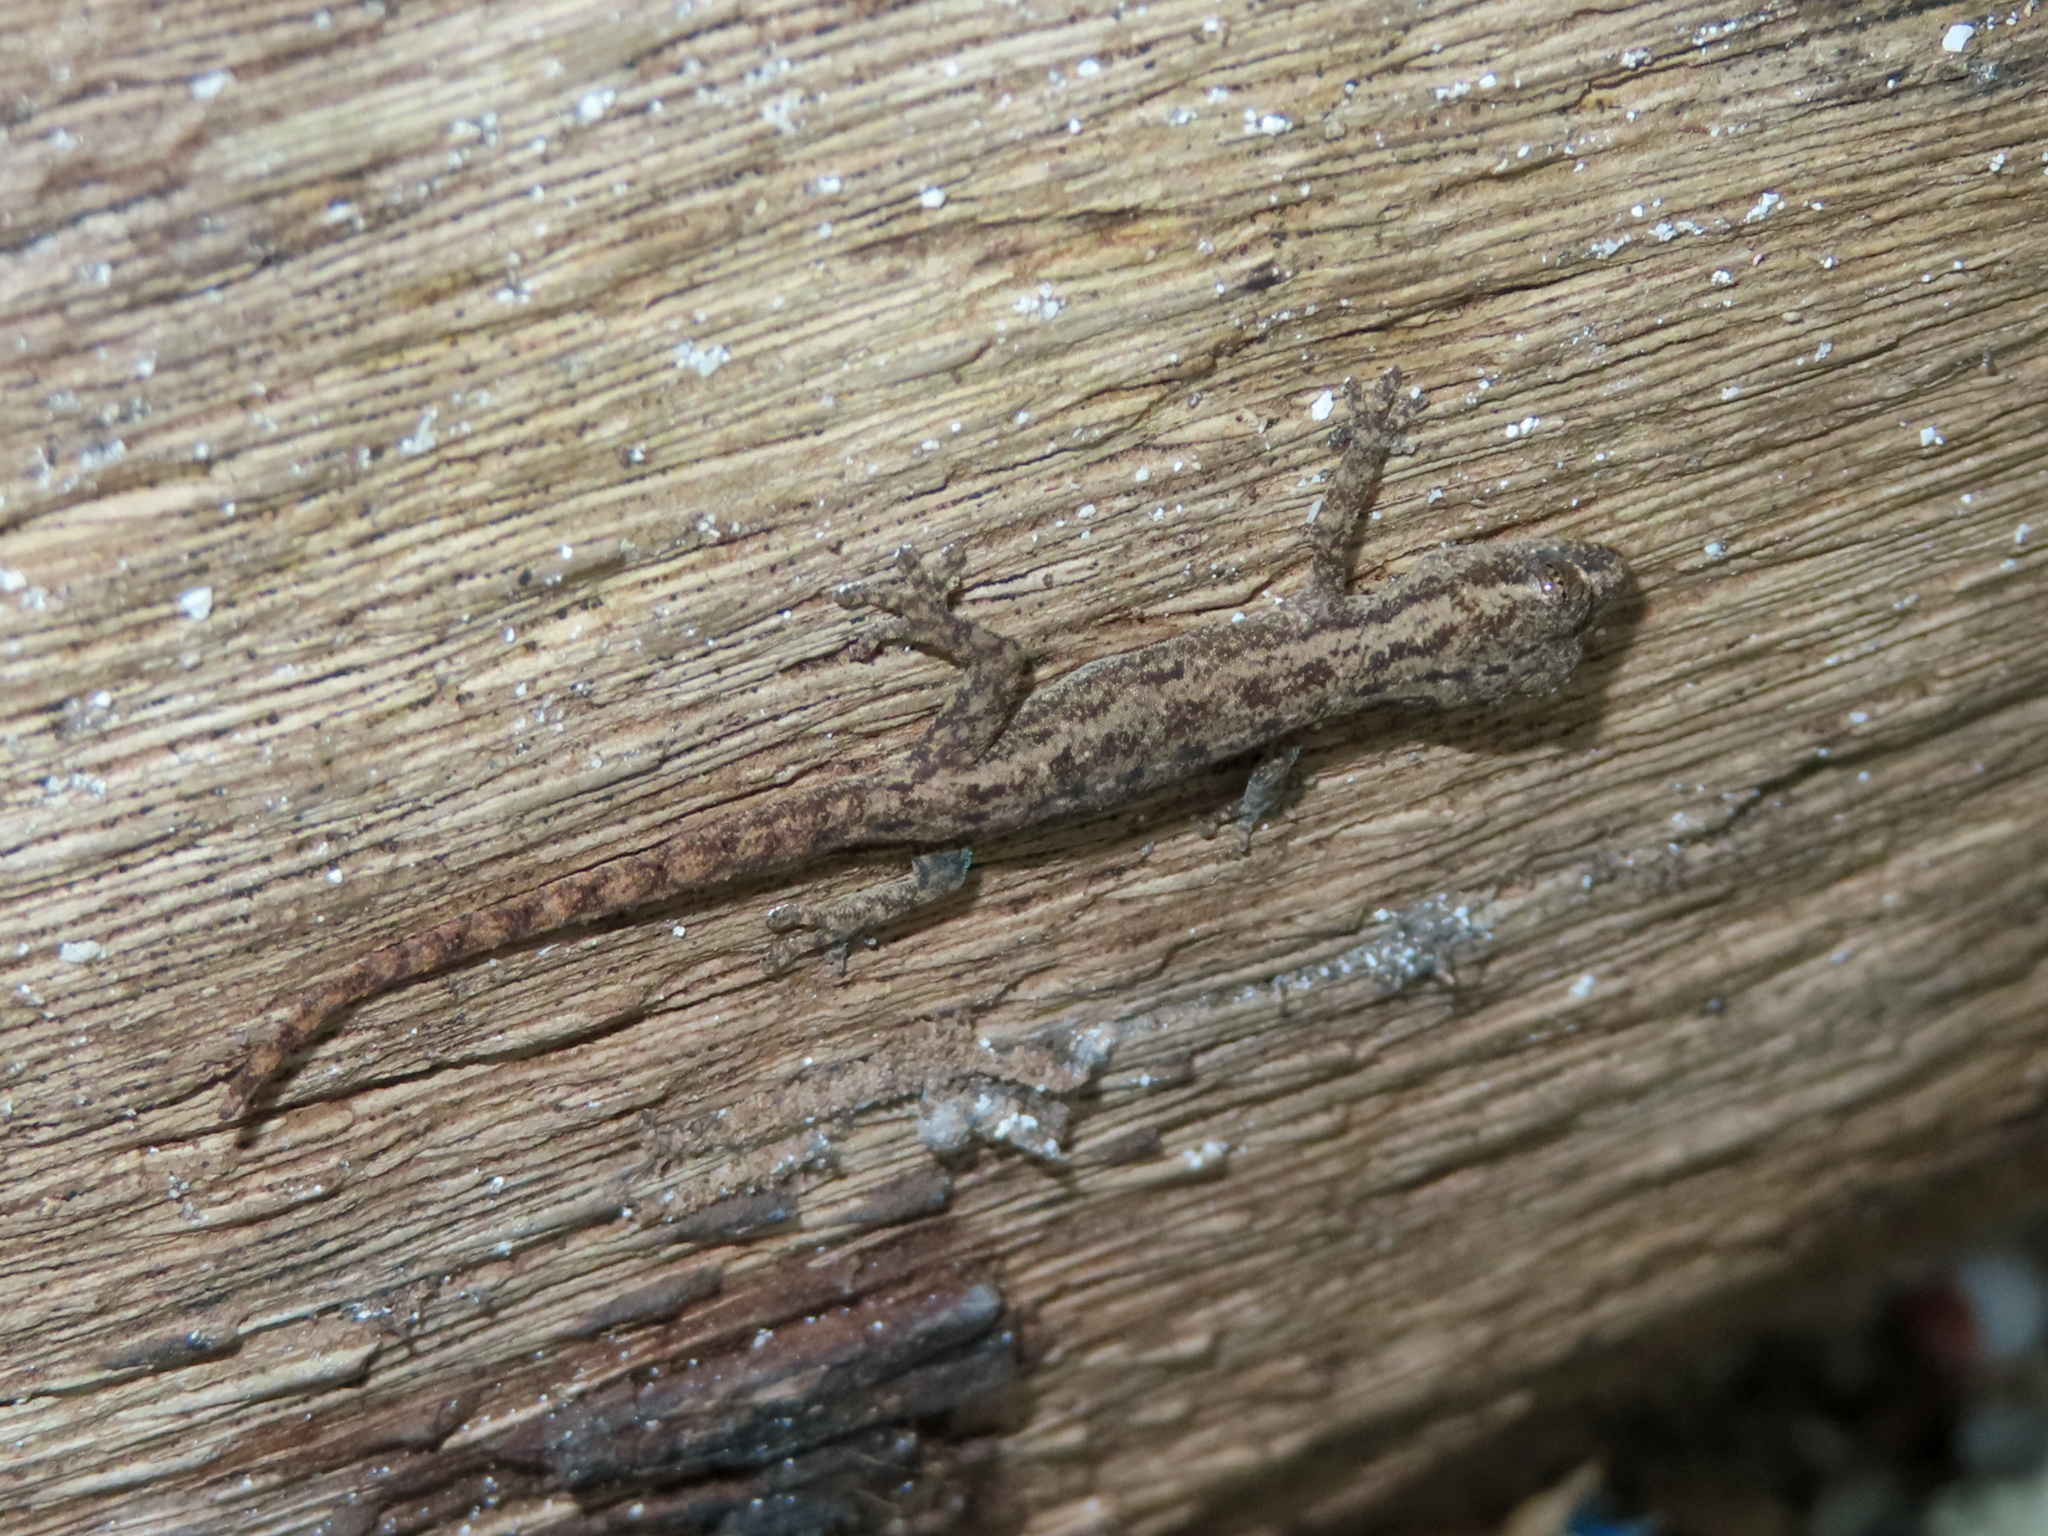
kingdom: Animalia
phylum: Chordata
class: Squamata
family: Gekkonidae
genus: Hemidactylus
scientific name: Hemidactylus frenatus
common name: Common house gecko
